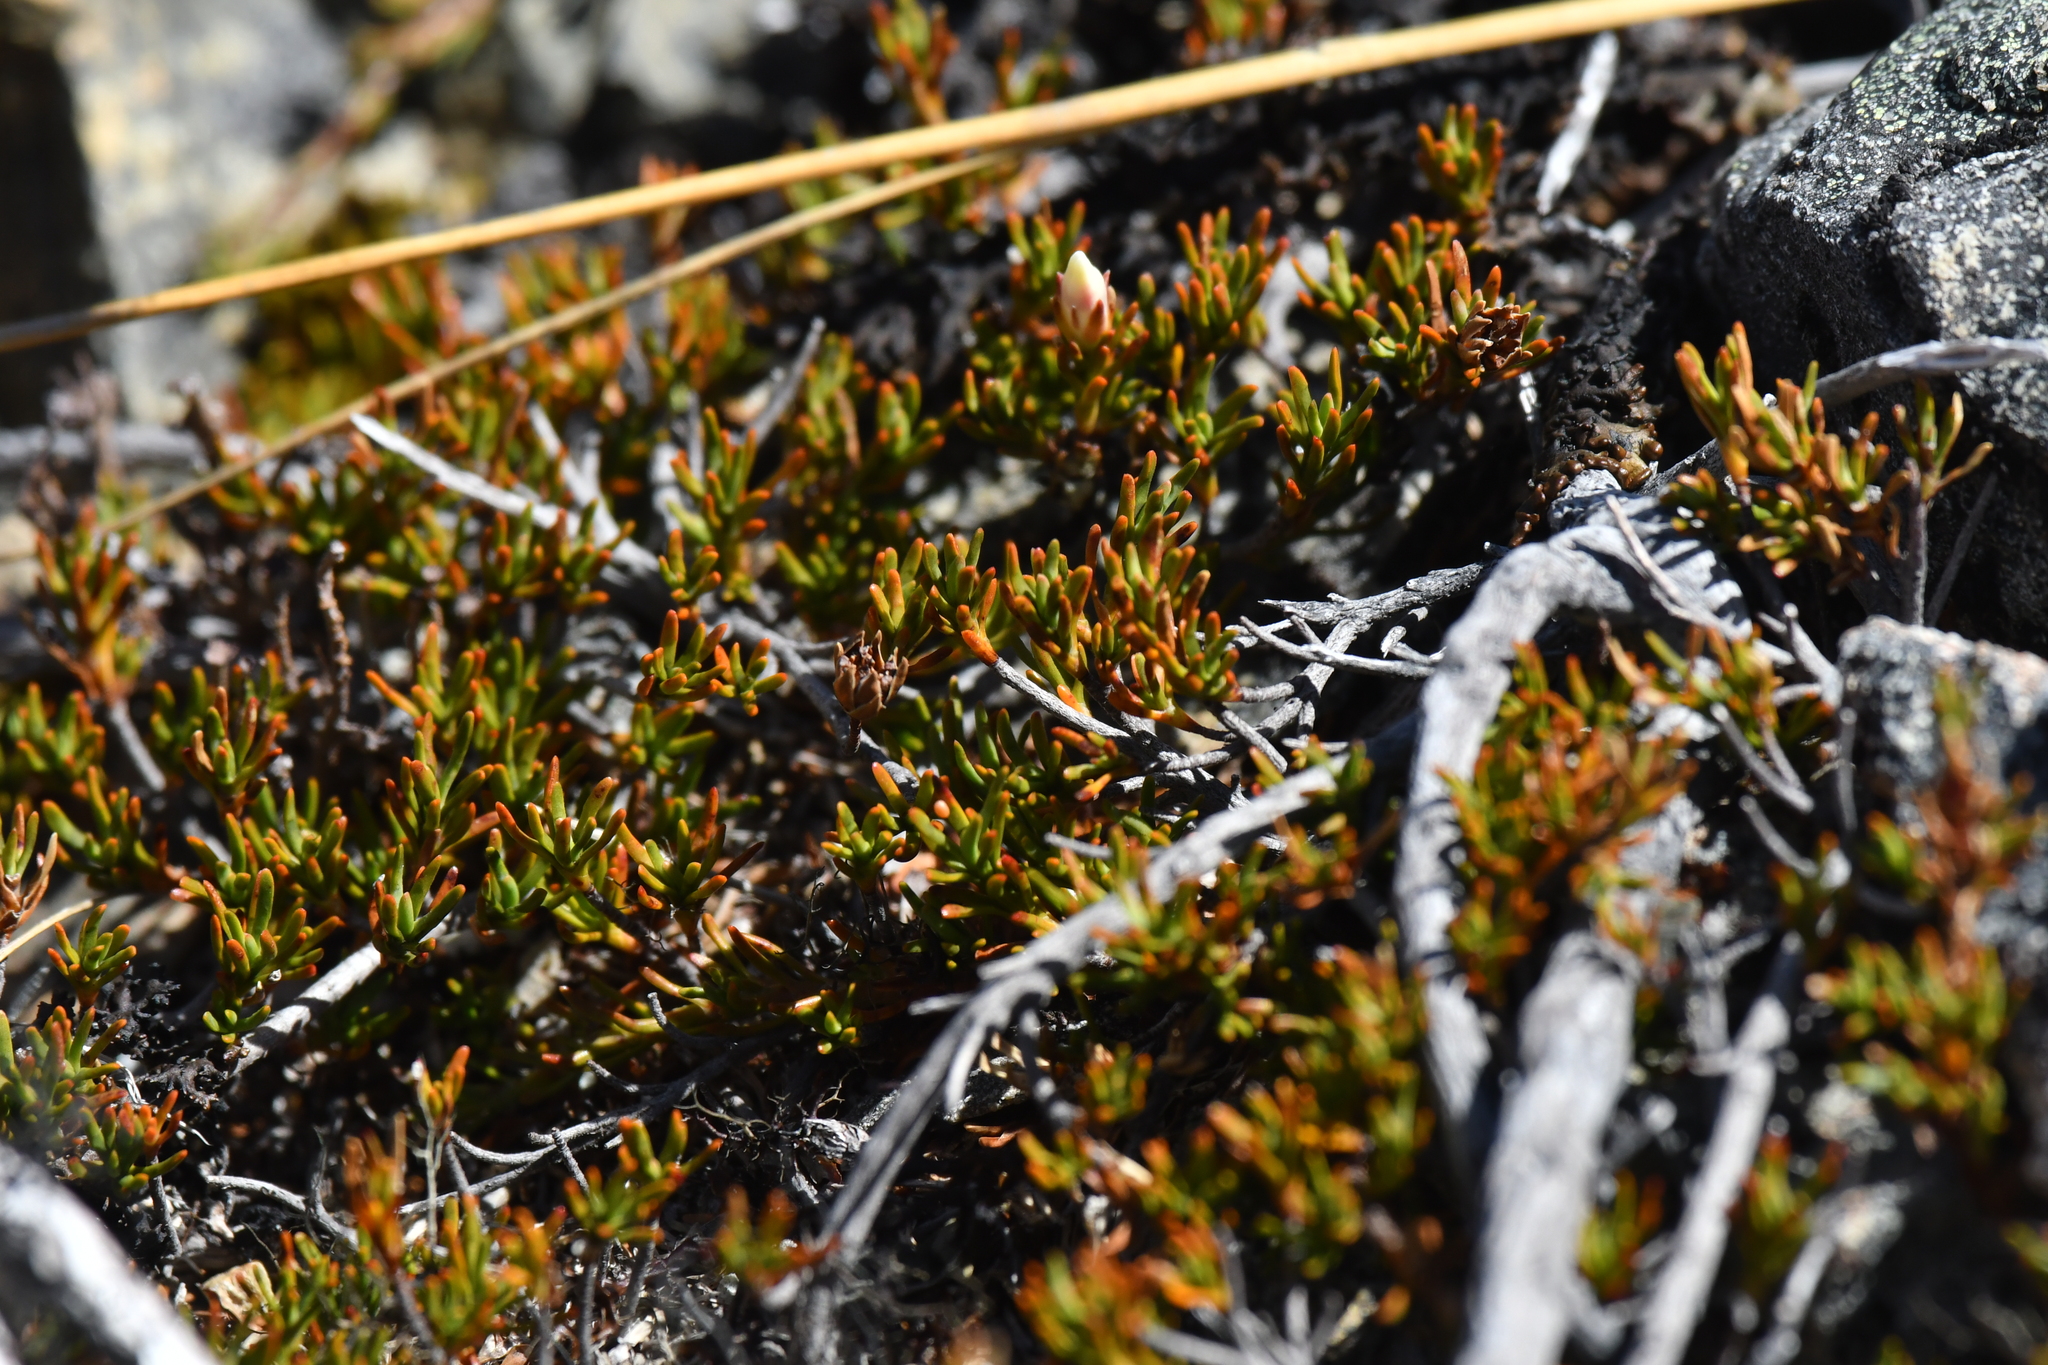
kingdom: Plantae
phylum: Tracheophyta
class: Magnoliopsida
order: Ericales
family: Ericaceae
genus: Dracophyllum
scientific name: Dracophyllum pronum
